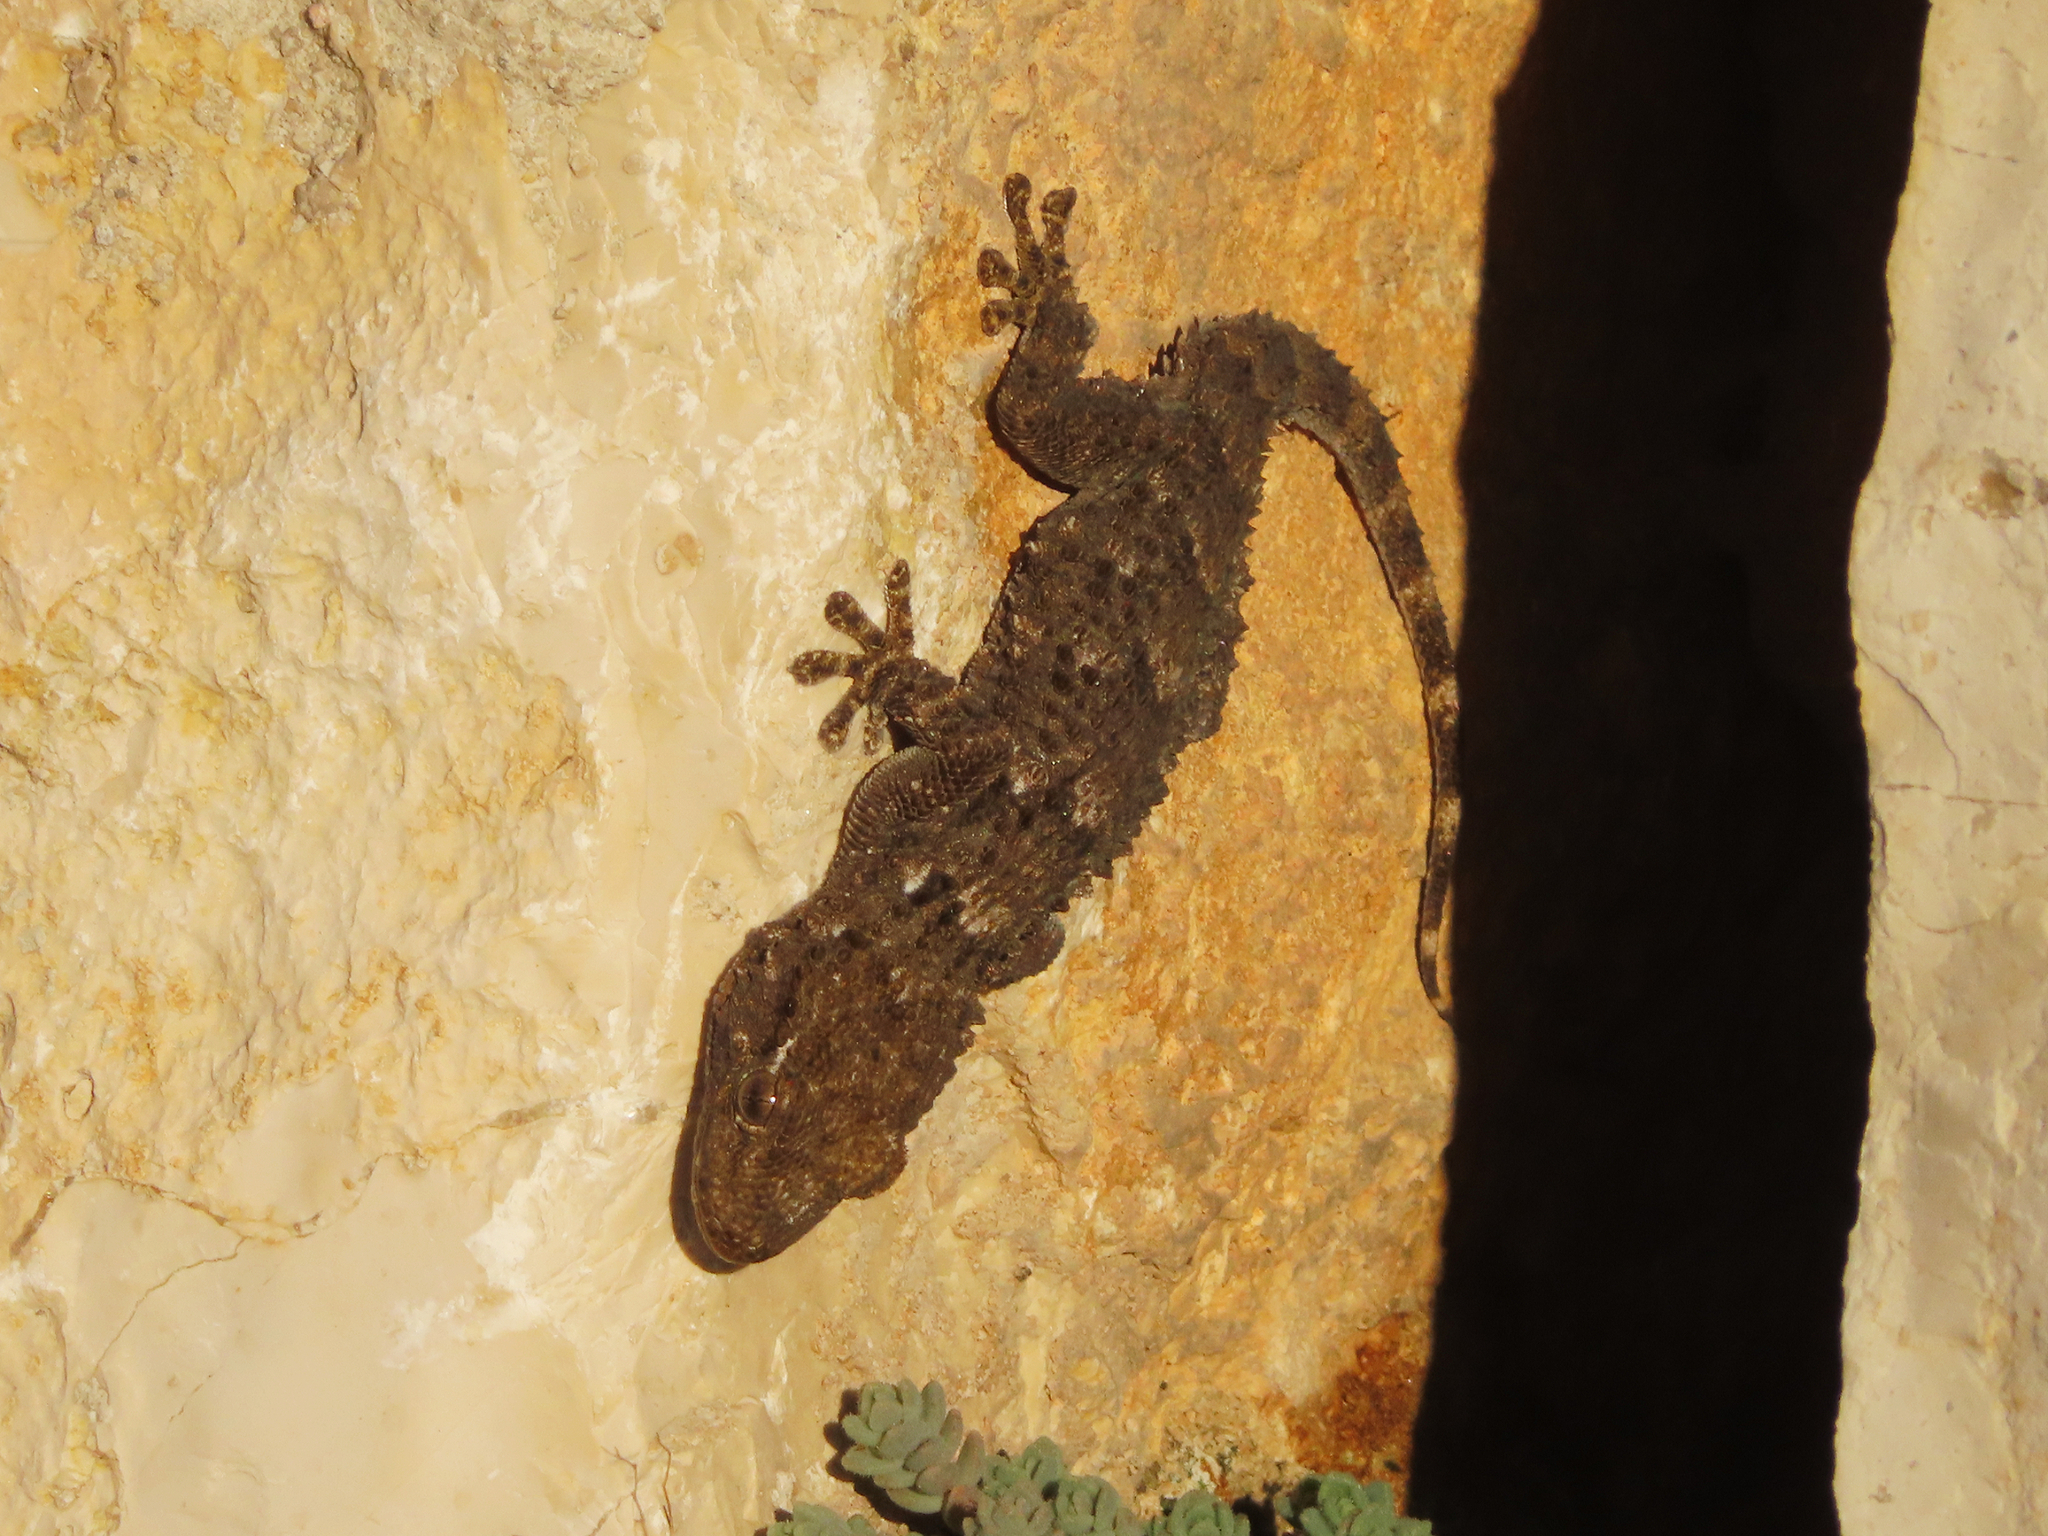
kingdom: Animalia
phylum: Chordata
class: Squamata
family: Phyllodactylidae
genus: Tarentola
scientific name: Tarentola mauritanica
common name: Moorish gecko
